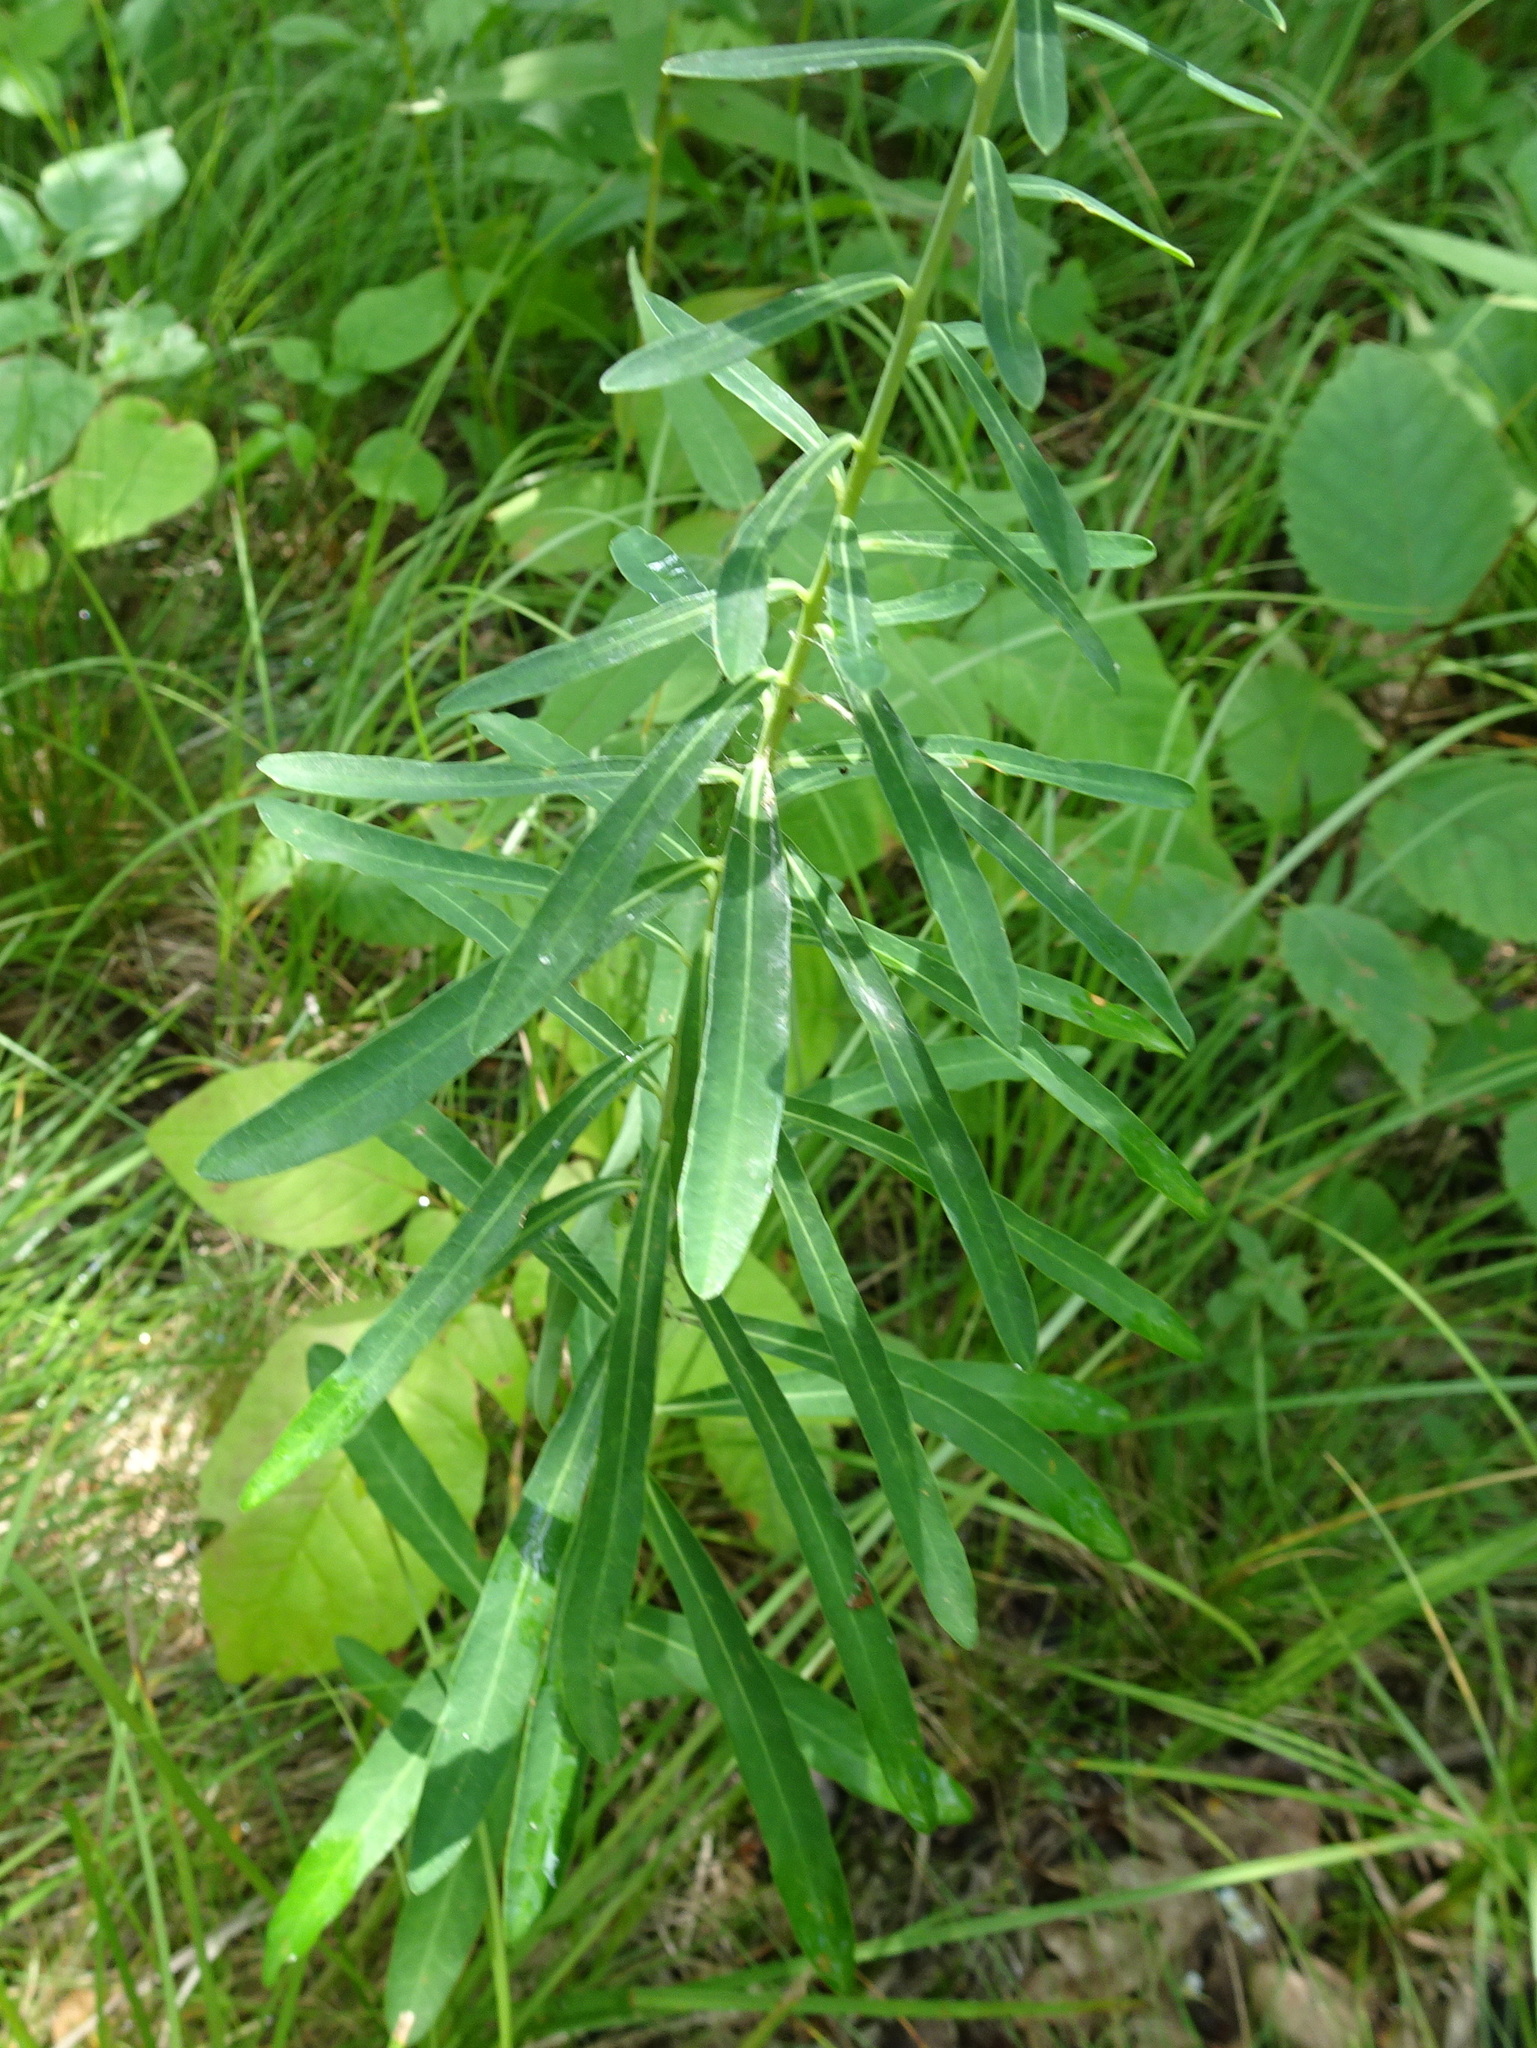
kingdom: Plantae
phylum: Tracheophyta
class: Magnoliopsida
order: Malpighiales
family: Euphorbiaceae
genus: Euphorbia
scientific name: Euphorbia corollata
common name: Flowering spurge
